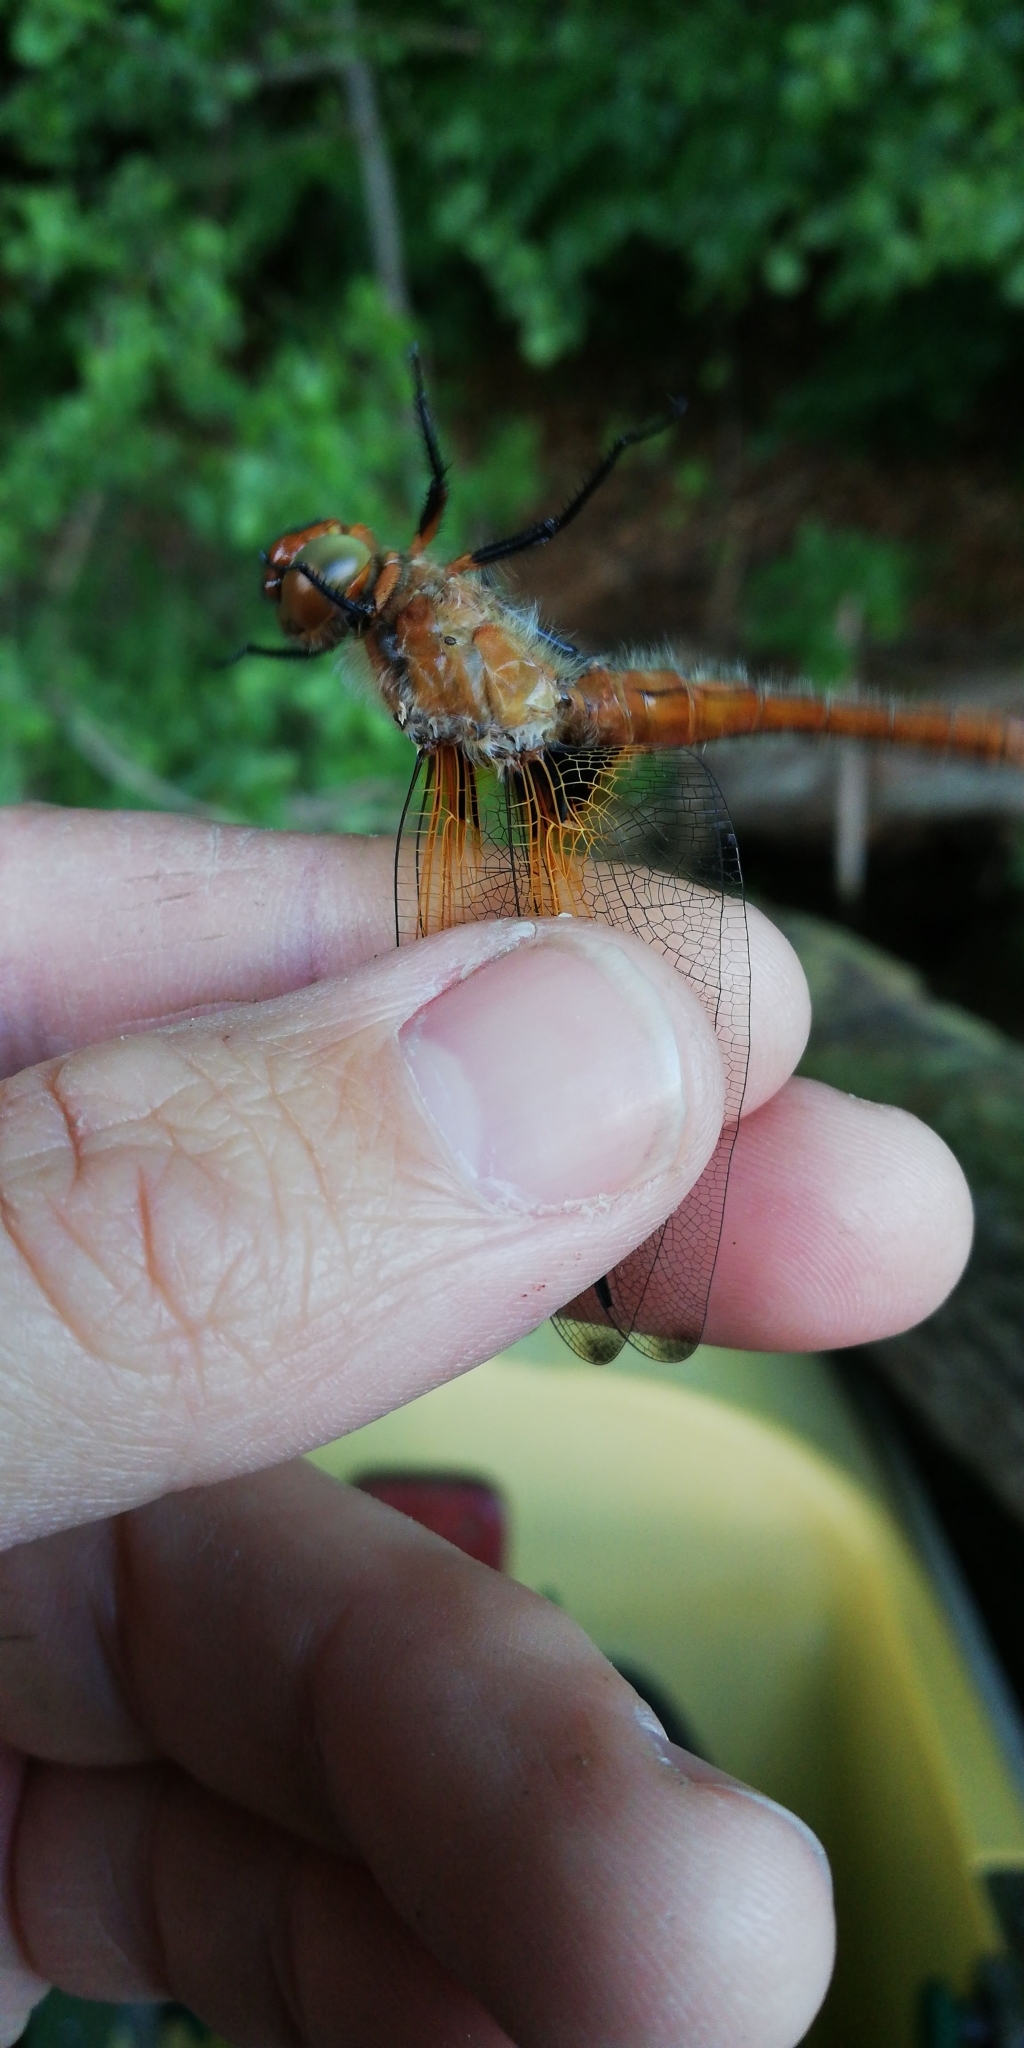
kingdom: Animalia
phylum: Arthropoda
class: Insecta
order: Odonata
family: Libellulidae
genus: Libellula
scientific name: Libellula fulva
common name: Blue chaser
